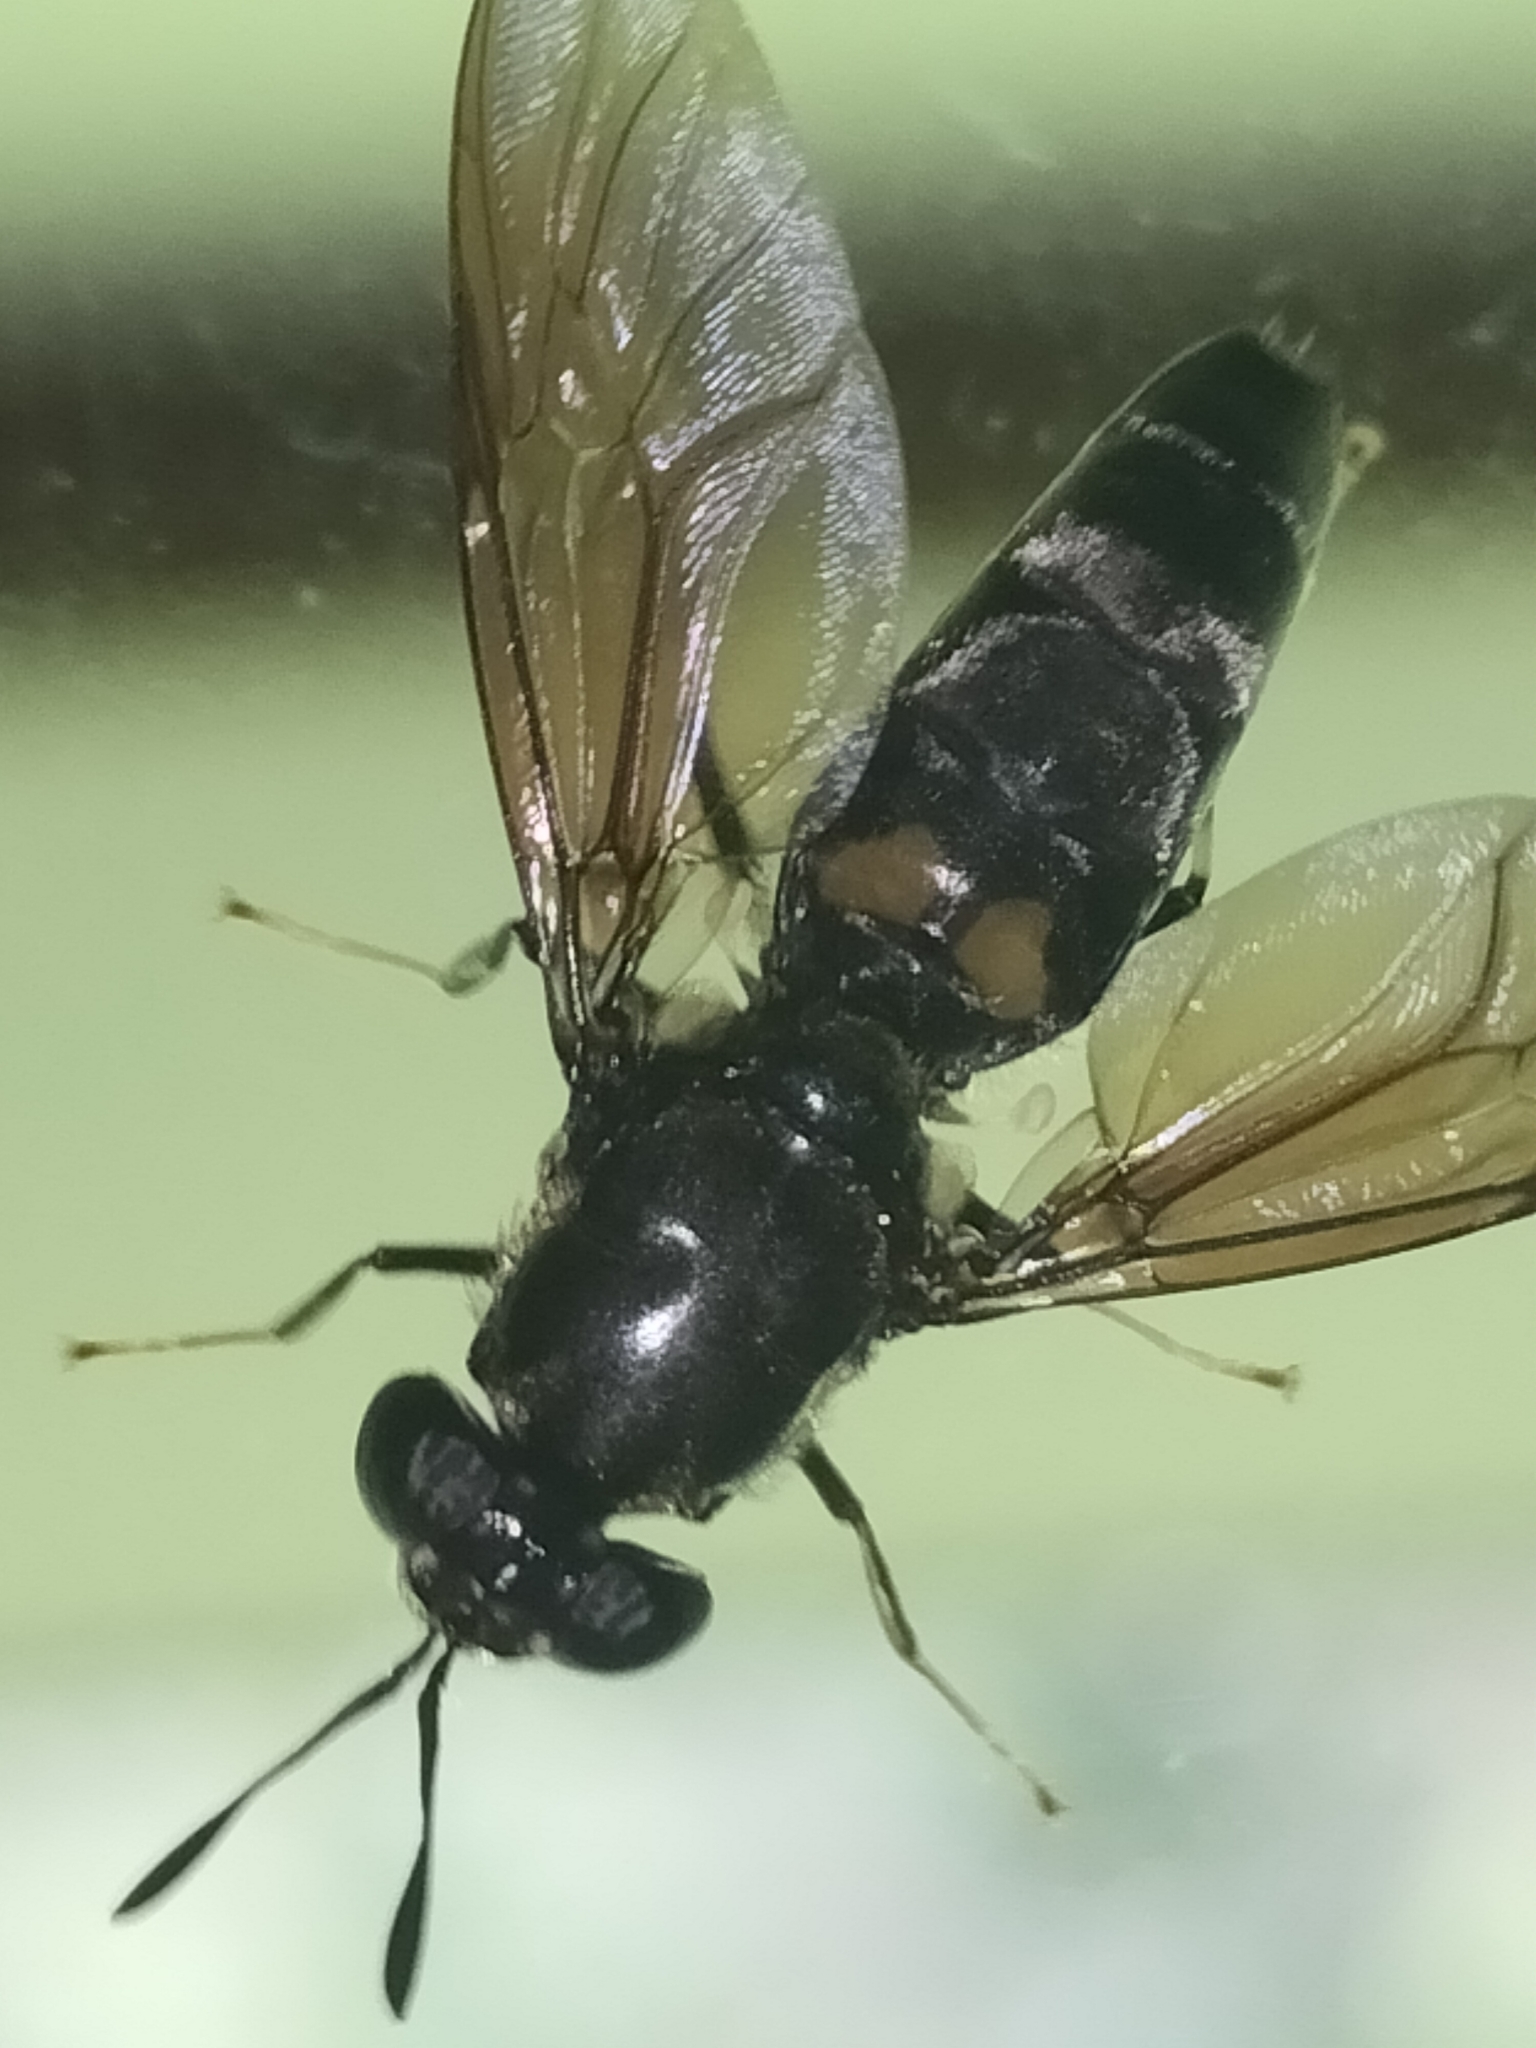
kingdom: Animalia
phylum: Arthropoda
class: Insecta
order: Diptera
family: Stratiomyidae
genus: Hermetia
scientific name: Hermetia illucens
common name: Black soldier fly
